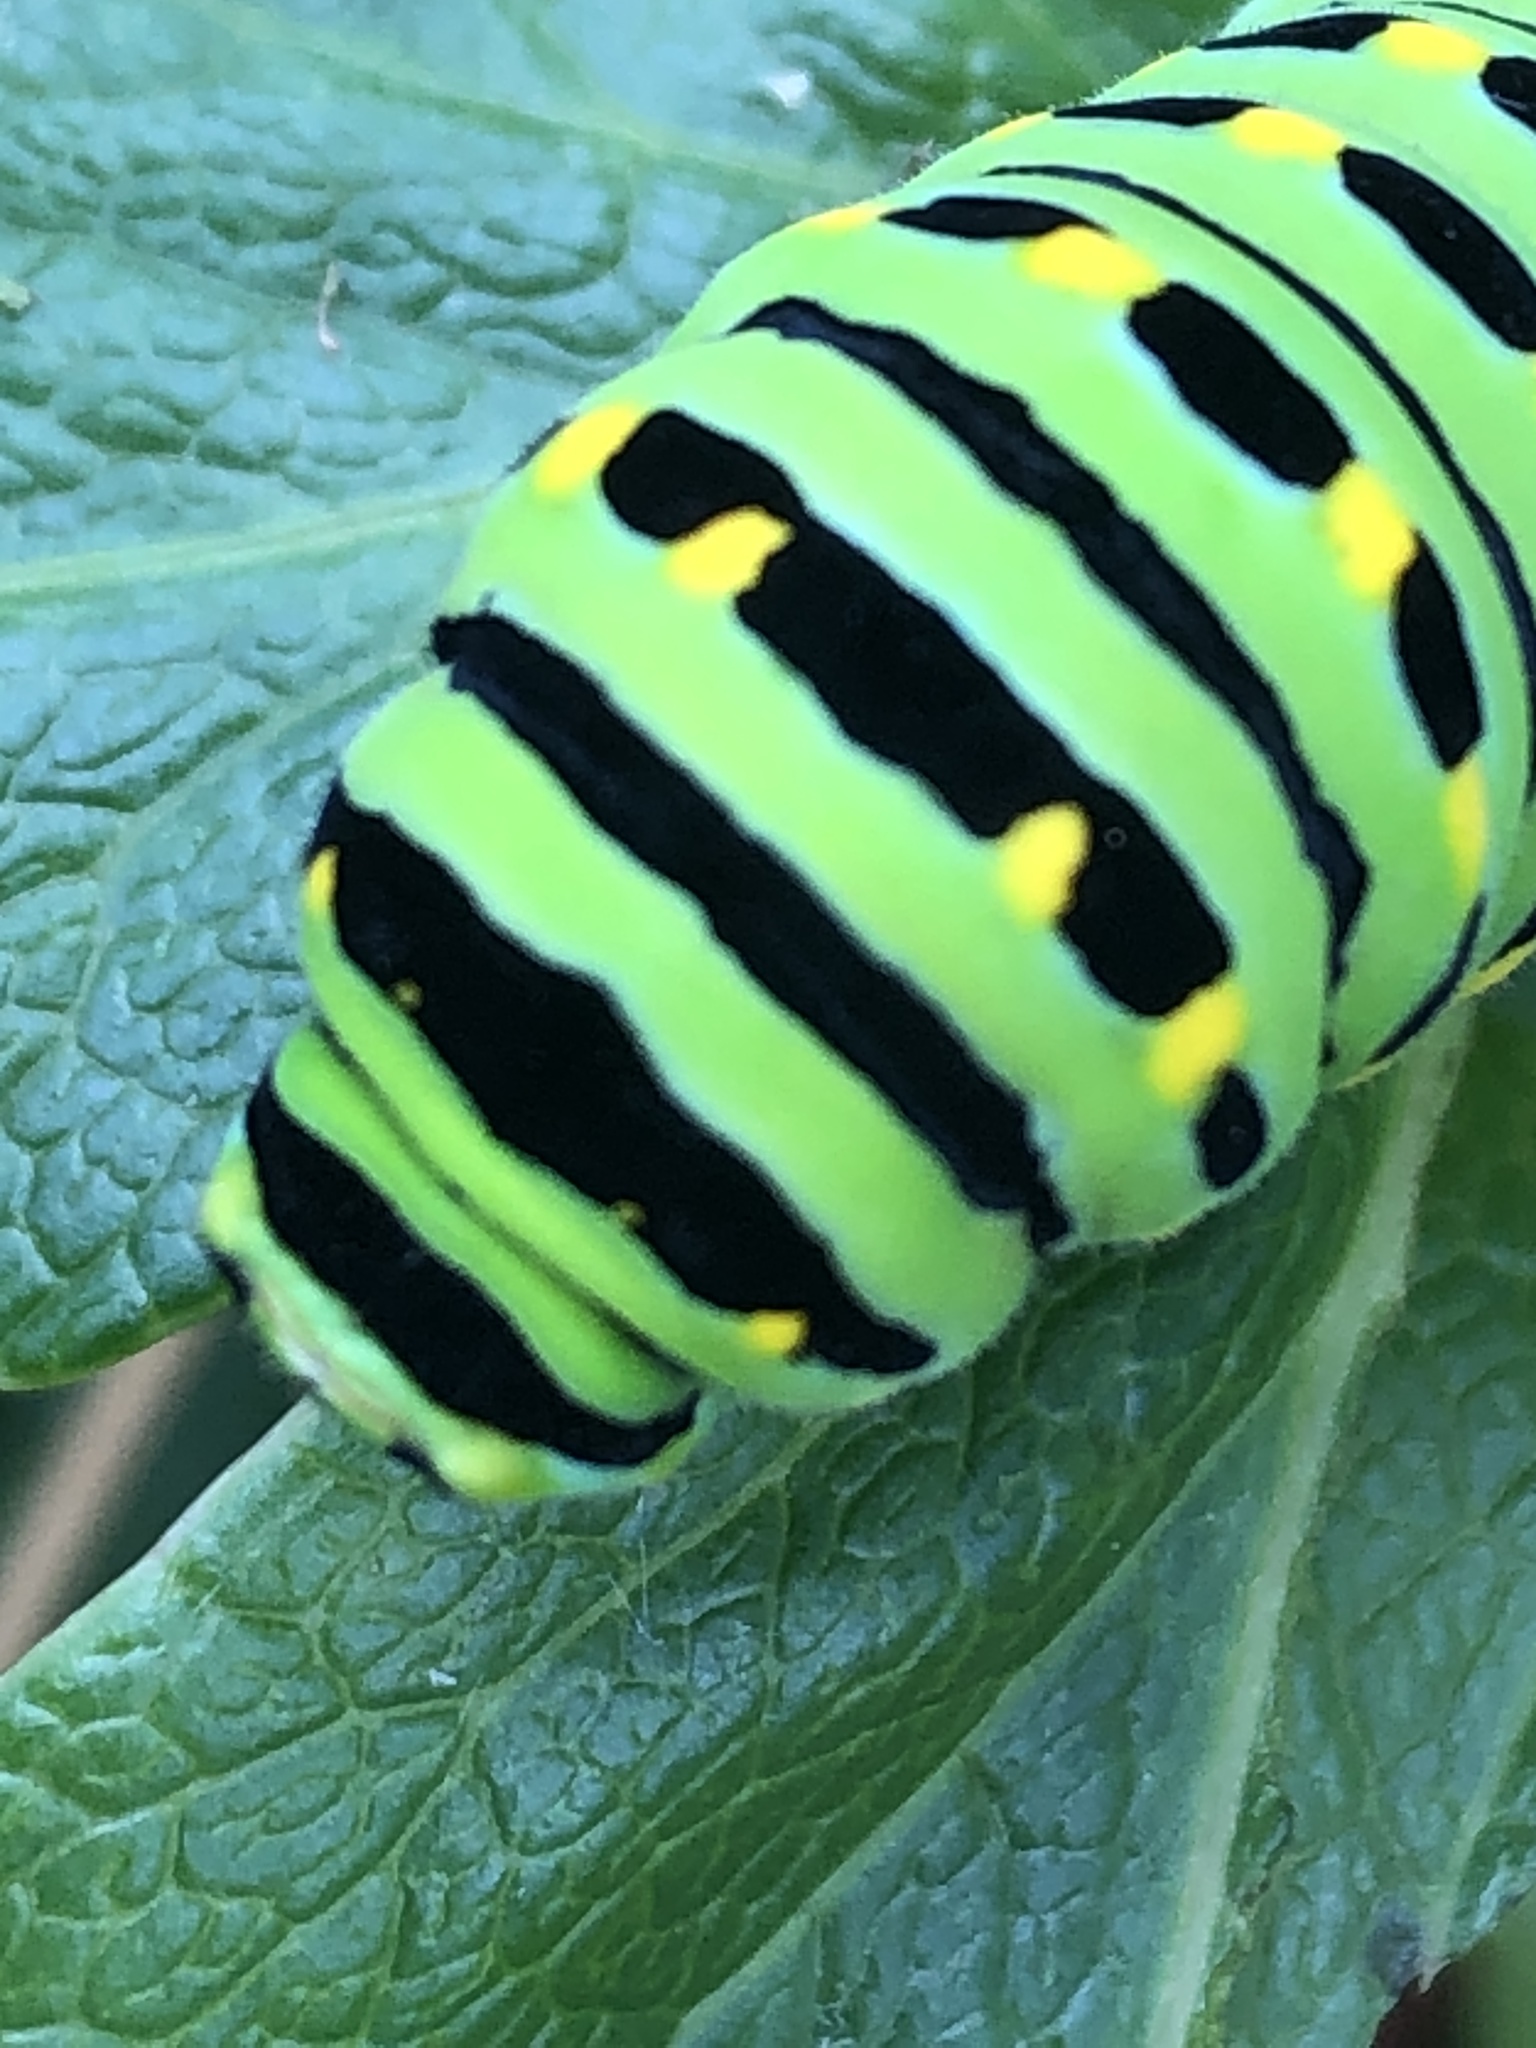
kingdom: Animalia
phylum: Arthropoda
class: Insecta
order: Lepidoptera
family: Papilionidae
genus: Papilio
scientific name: Papilio brevicauda
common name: Short tailed swallowtail
